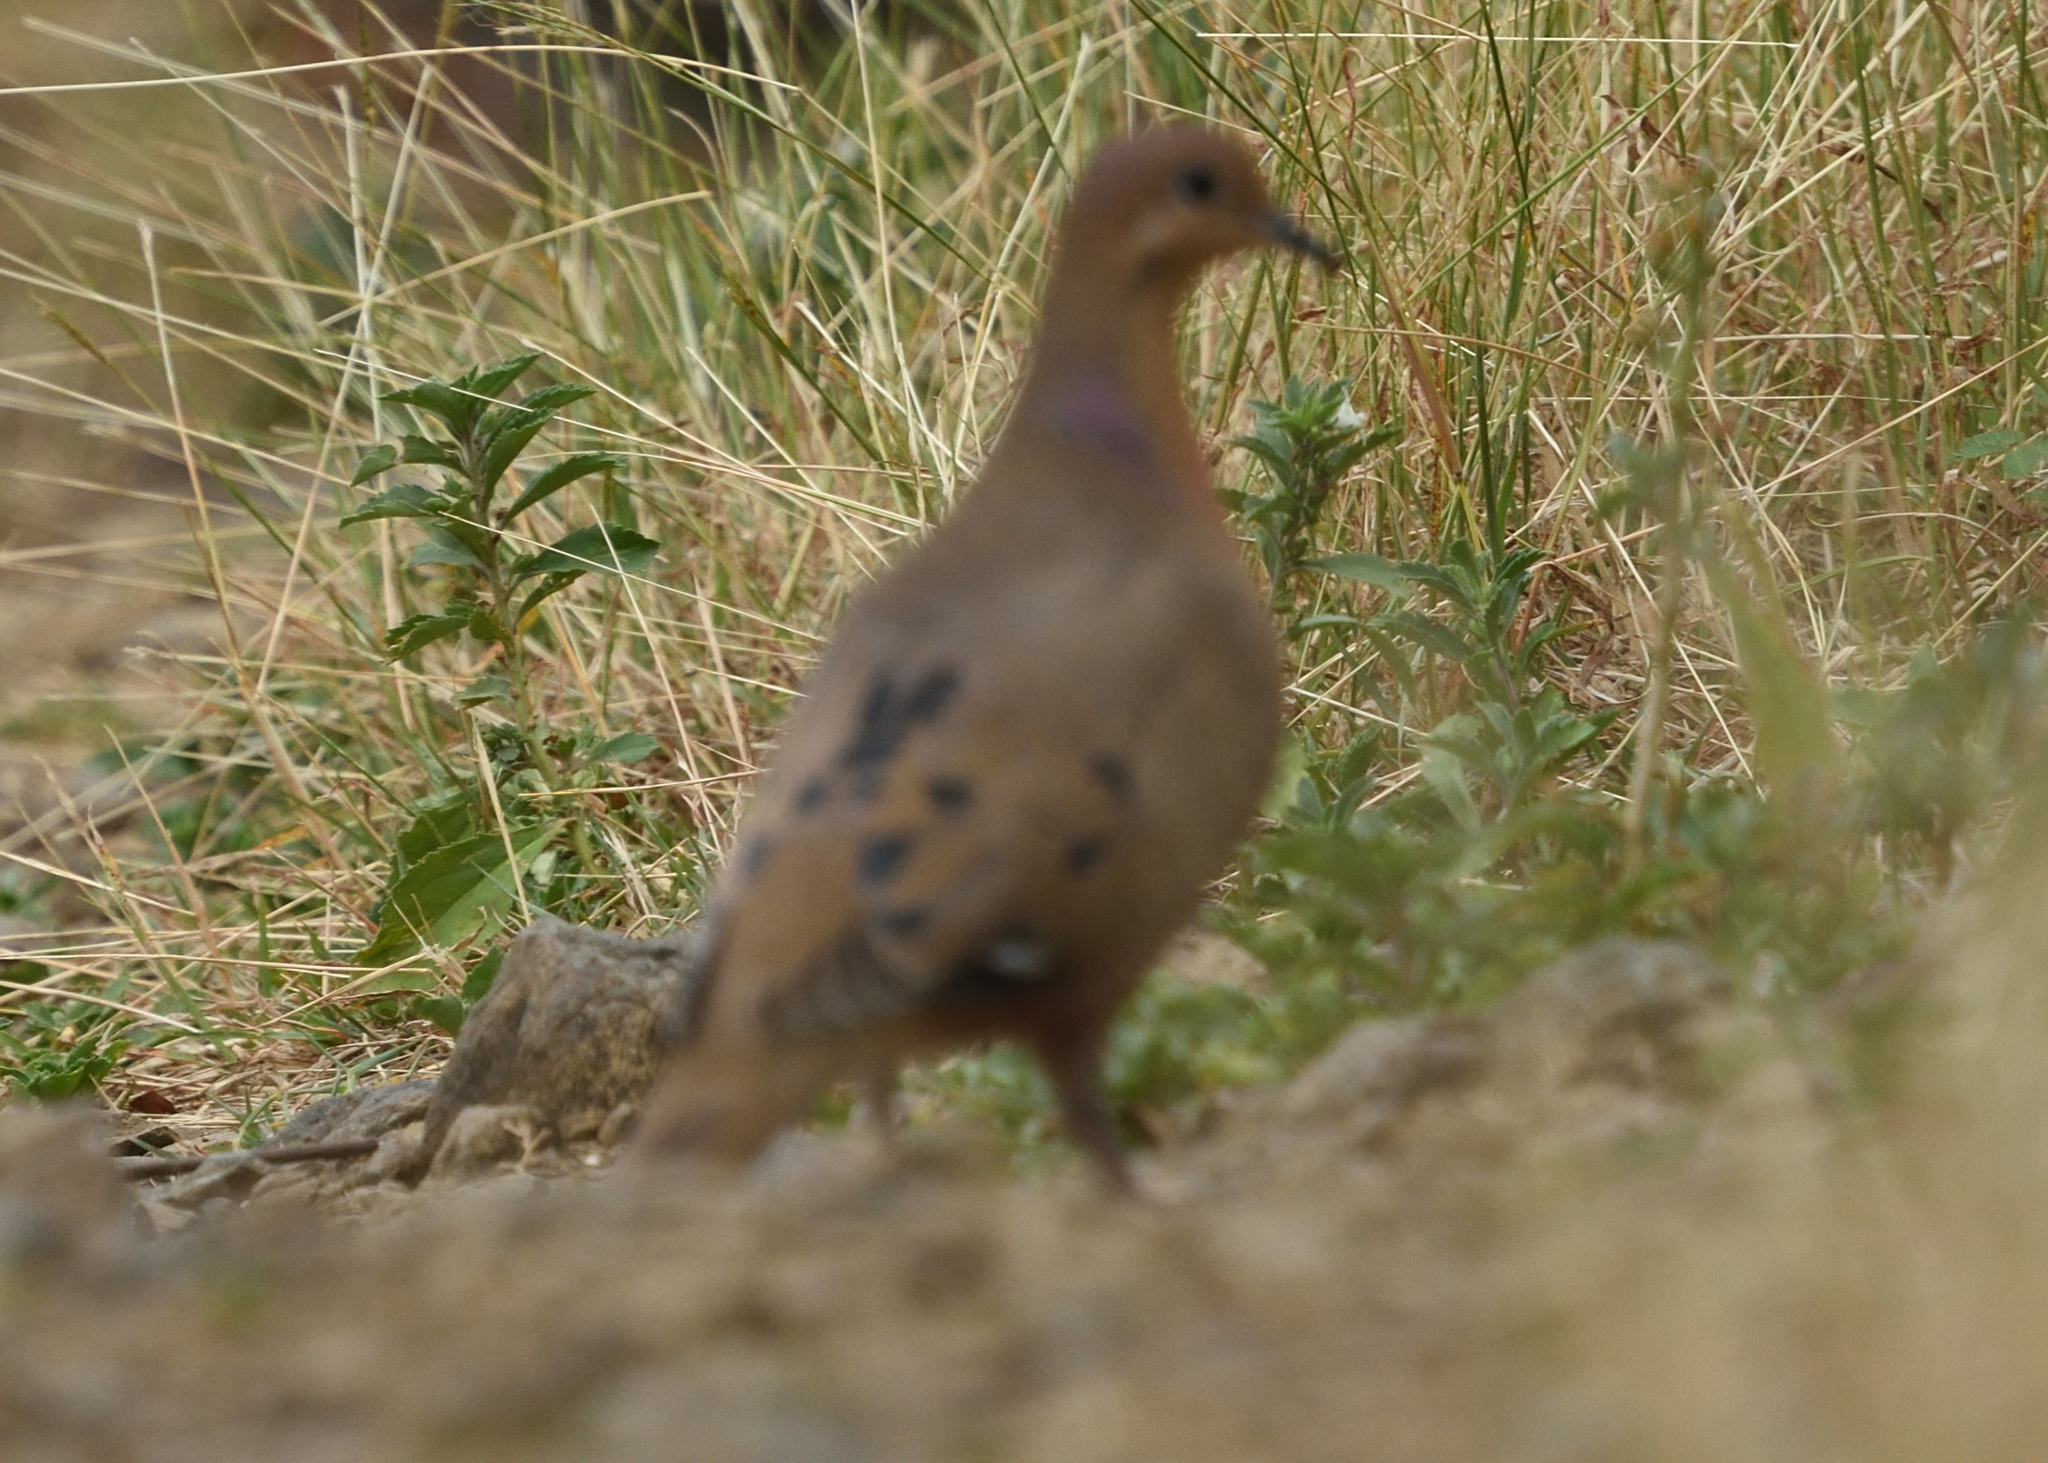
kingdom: Animalia
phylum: Chordata
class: Aves
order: Columbiformes
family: Columbidae
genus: Zenaida
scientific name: Zenaida aurita
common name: Zenaida dove
